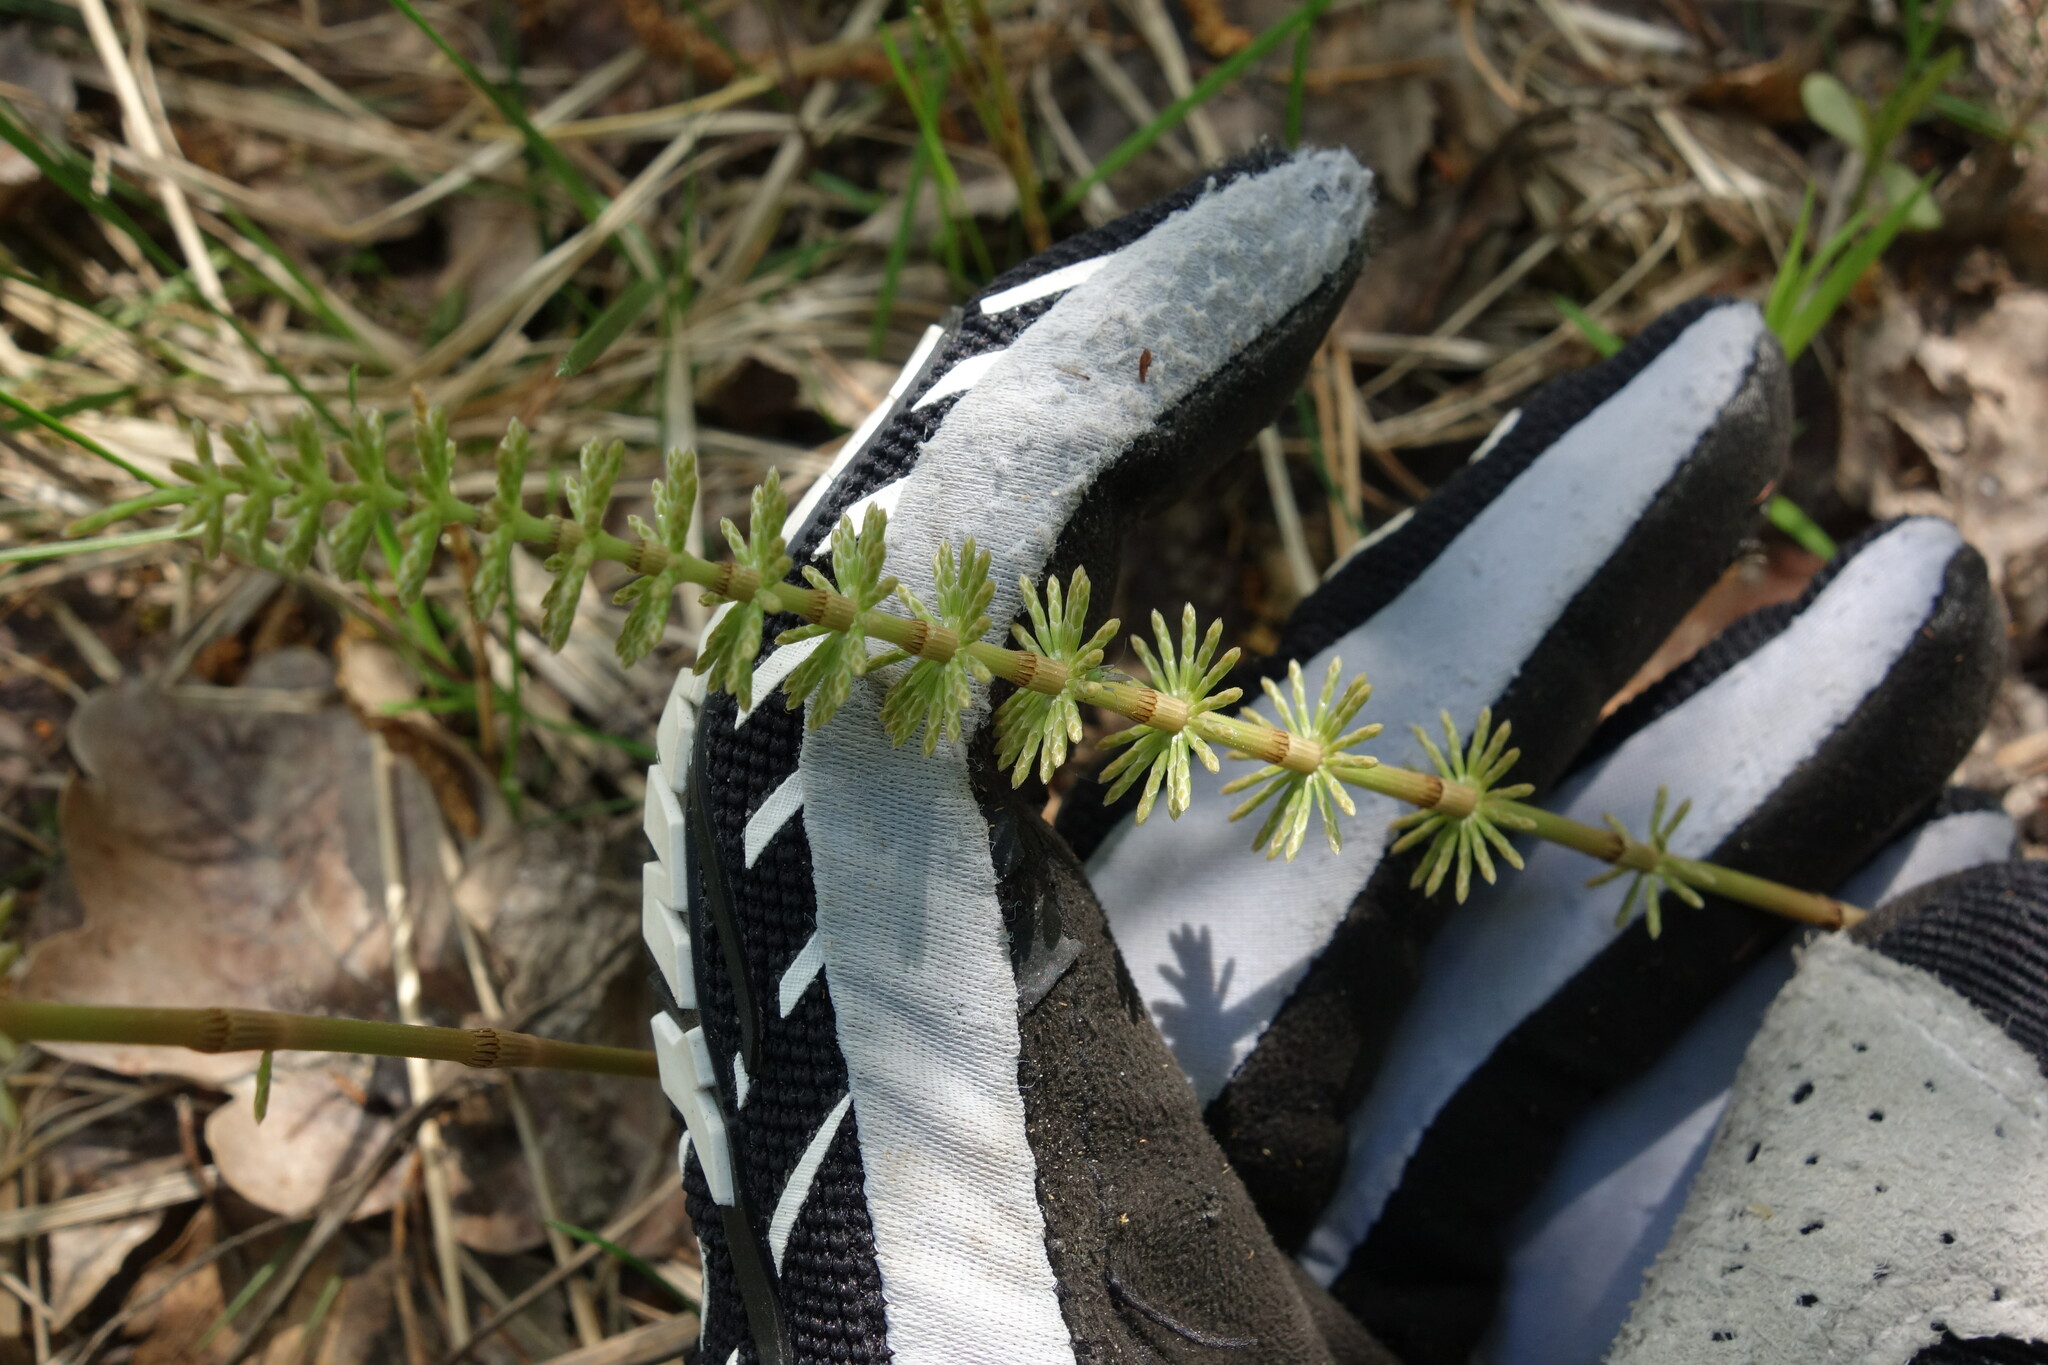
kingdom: Plantae
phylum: Tracheophyta
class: Polypodiopsida
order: Equisetales
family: Equisetaceae
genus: Equisetum
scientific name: Equisetum pratense
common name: Meadow horsetail
